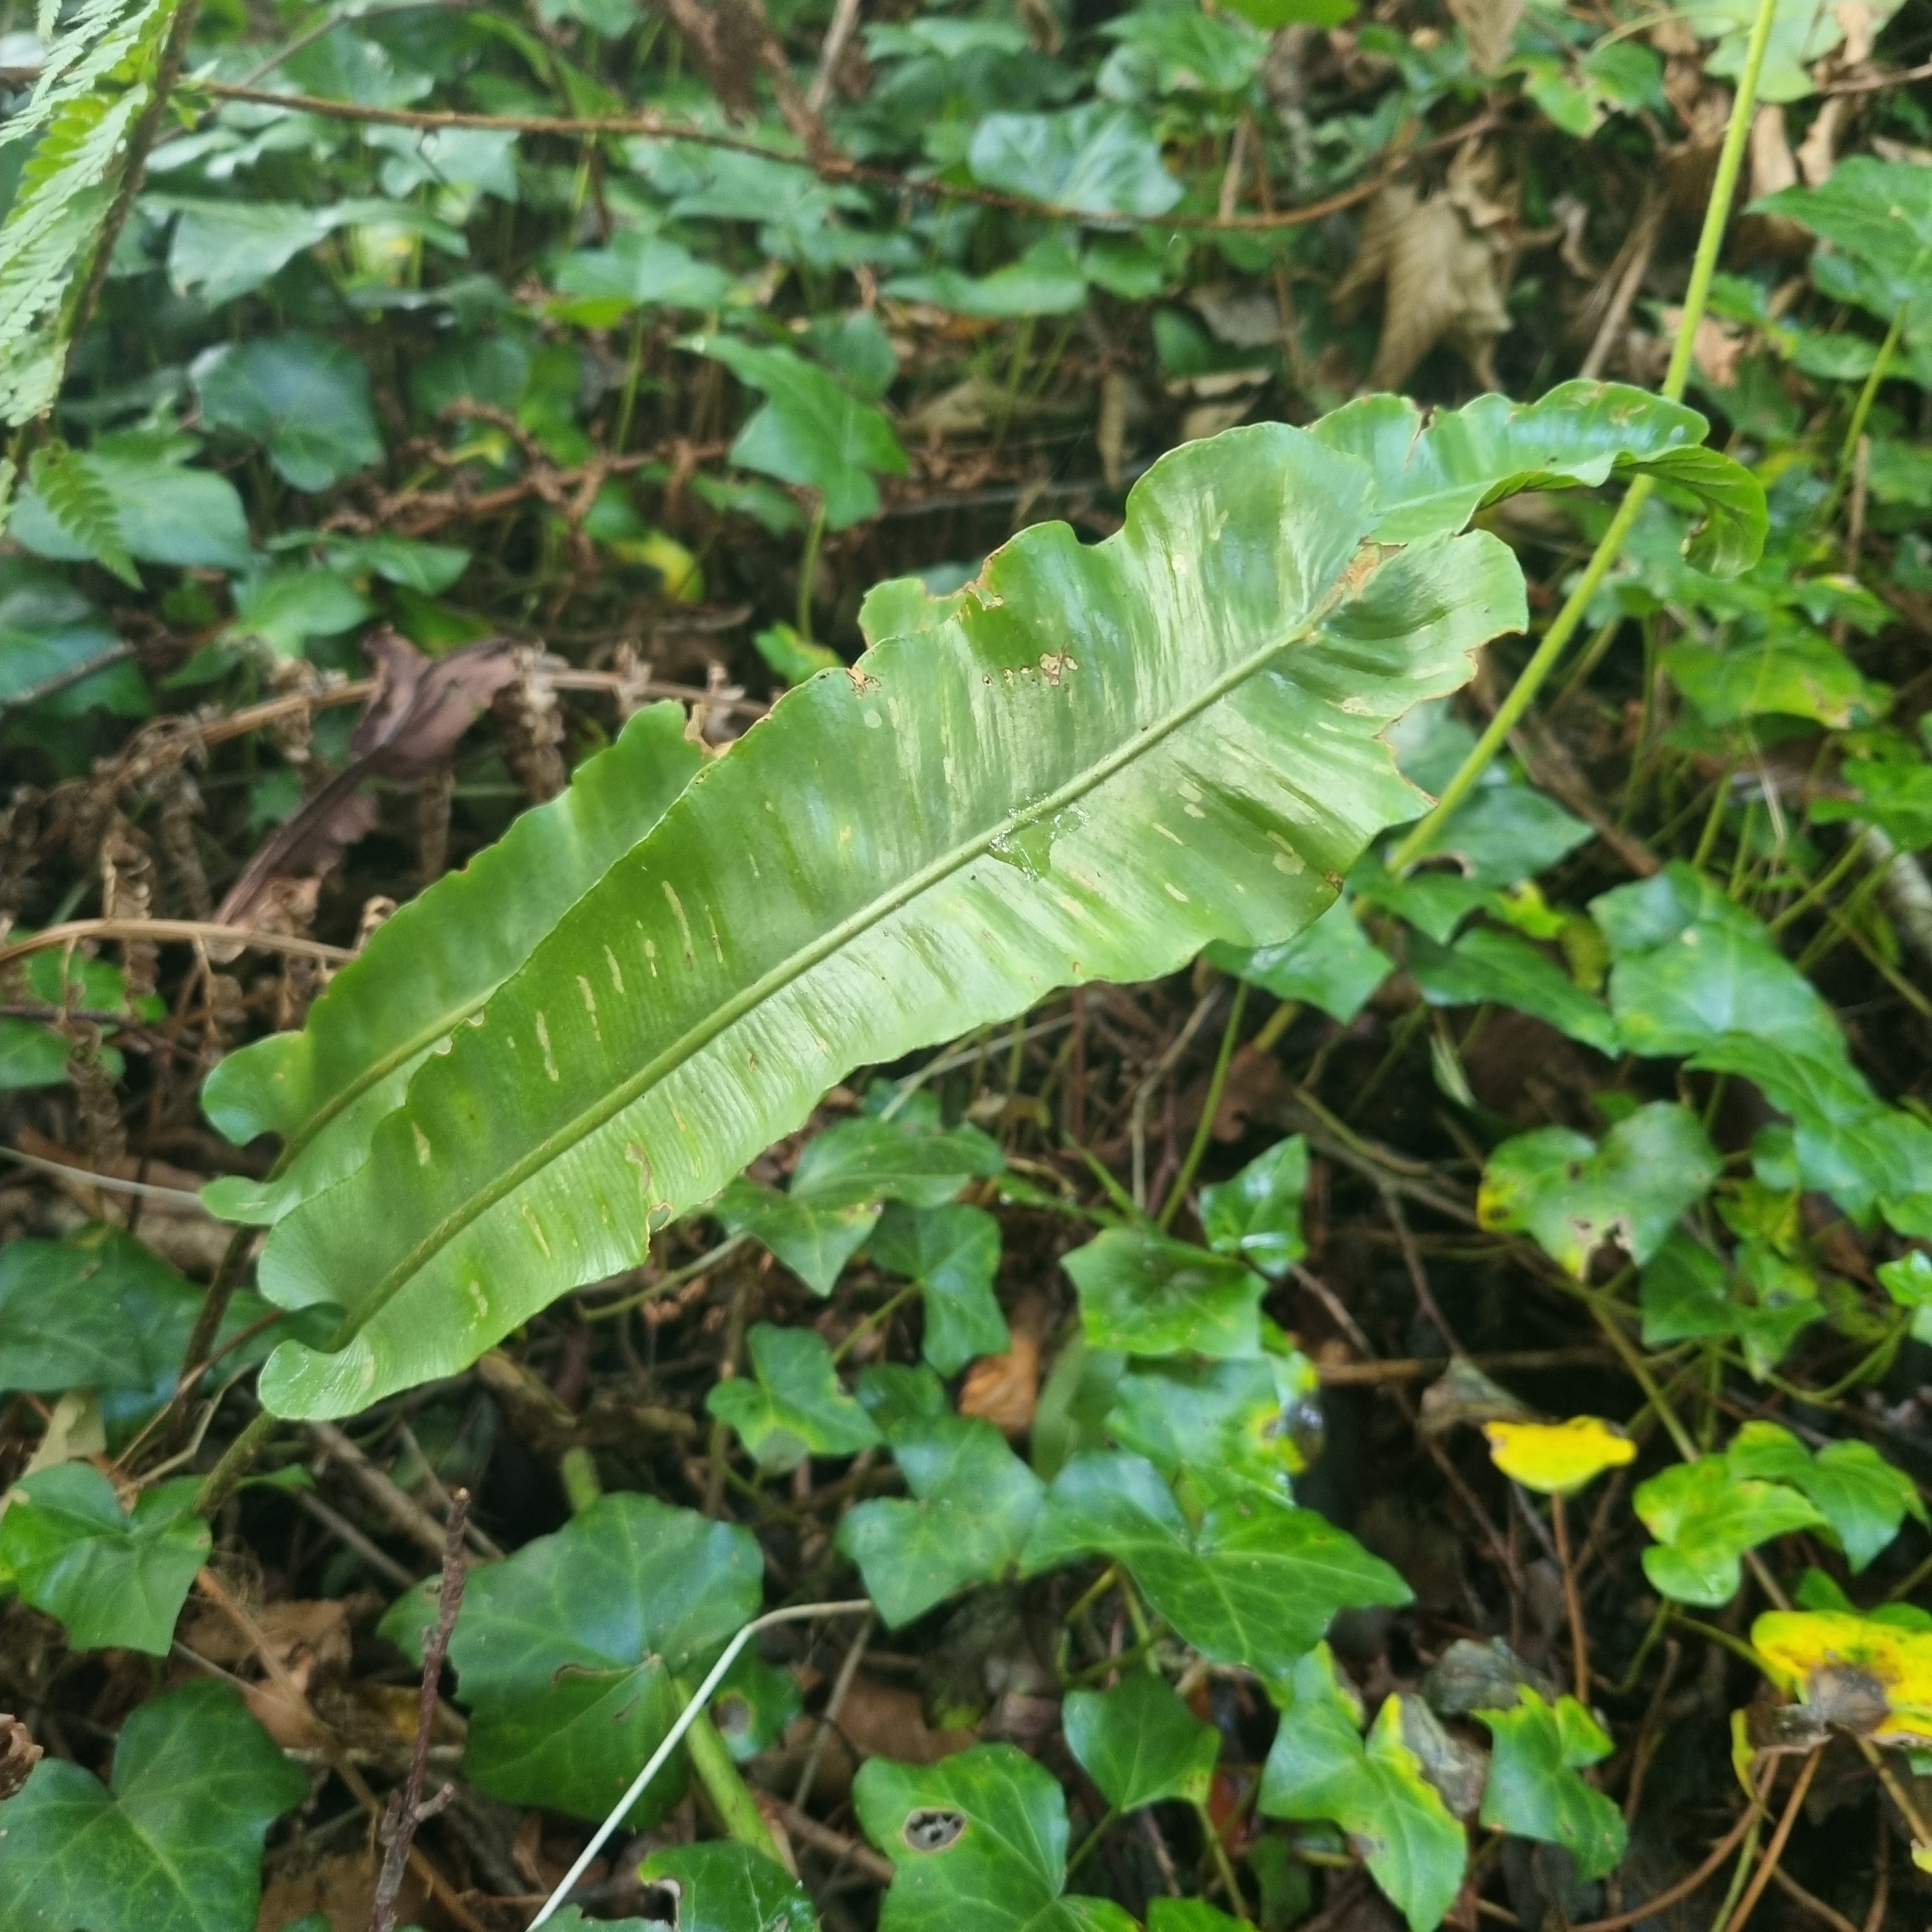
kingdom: Plantae
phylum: Tracheophyta
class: Polypodiopsida
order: Polypodiales
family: Aspleniaceae
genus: Asplenium
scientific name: Asplenium scolopendrium
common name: Hart's-tongue fern
